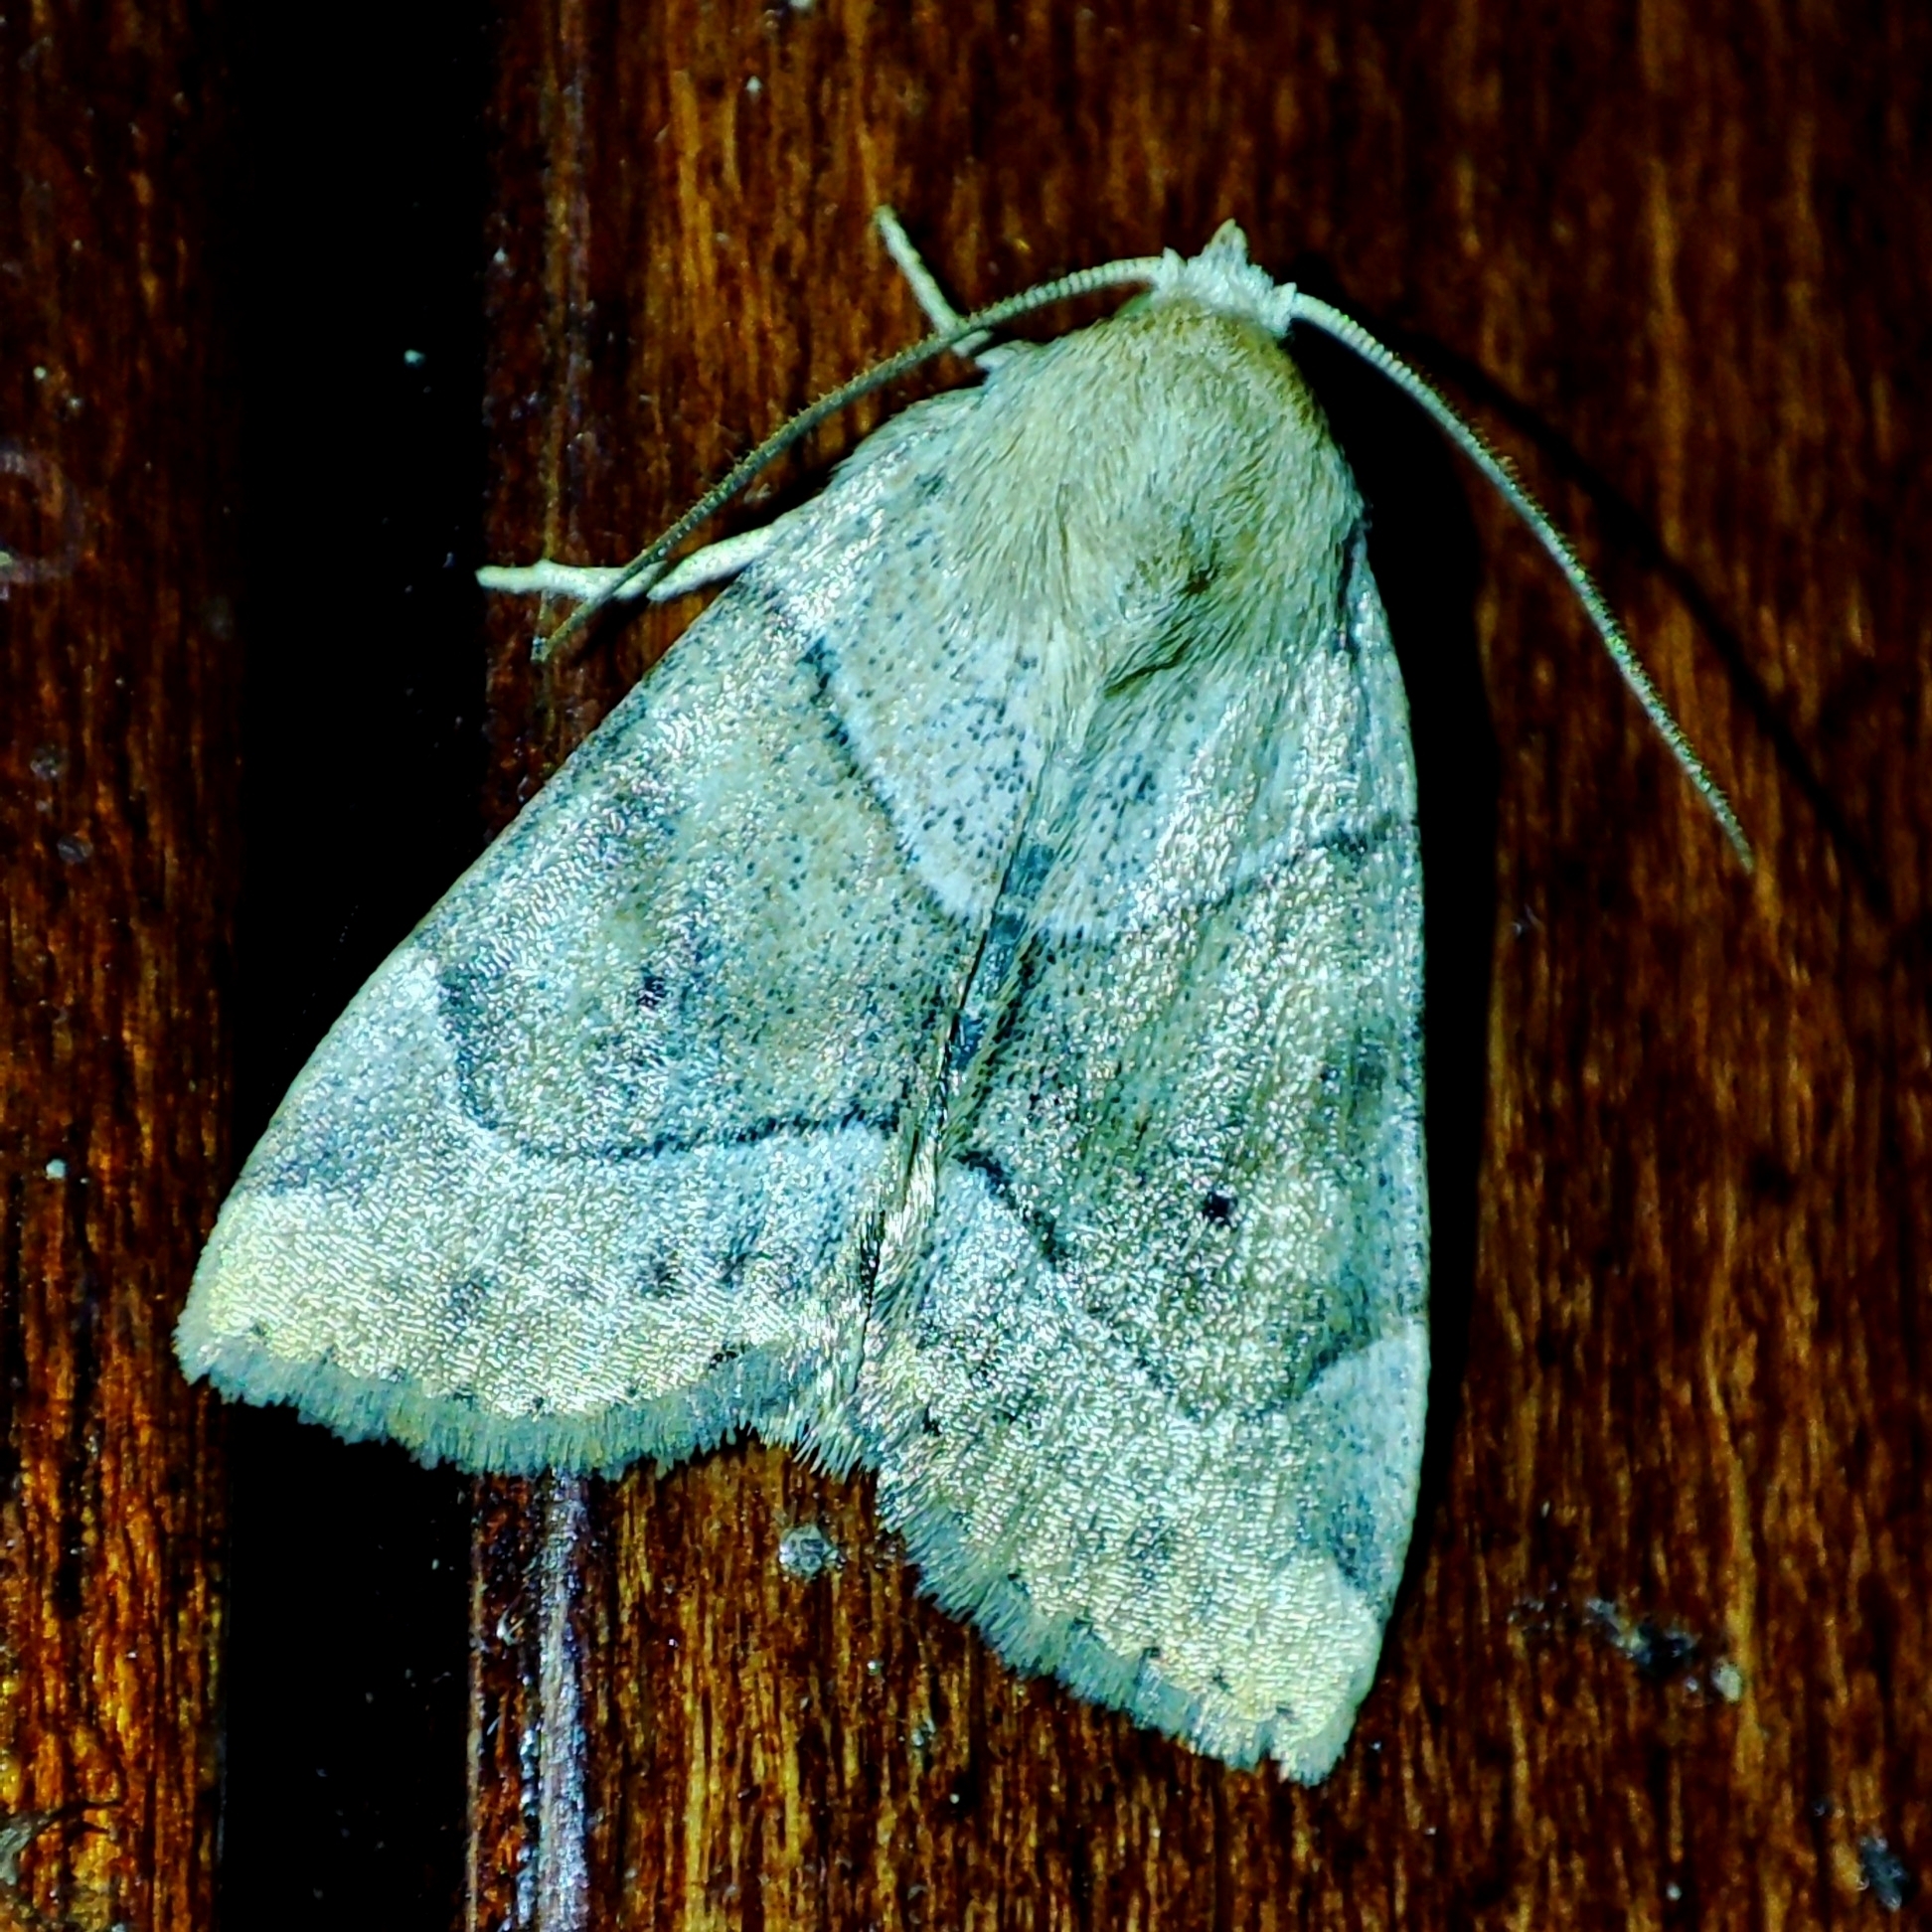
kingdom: Animalia
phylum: Arthropoda
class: Insecta
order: Lepidoptera
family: Noctuidae
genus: Cosmia
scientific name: Cosmia trapezina
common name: Dun-bar
